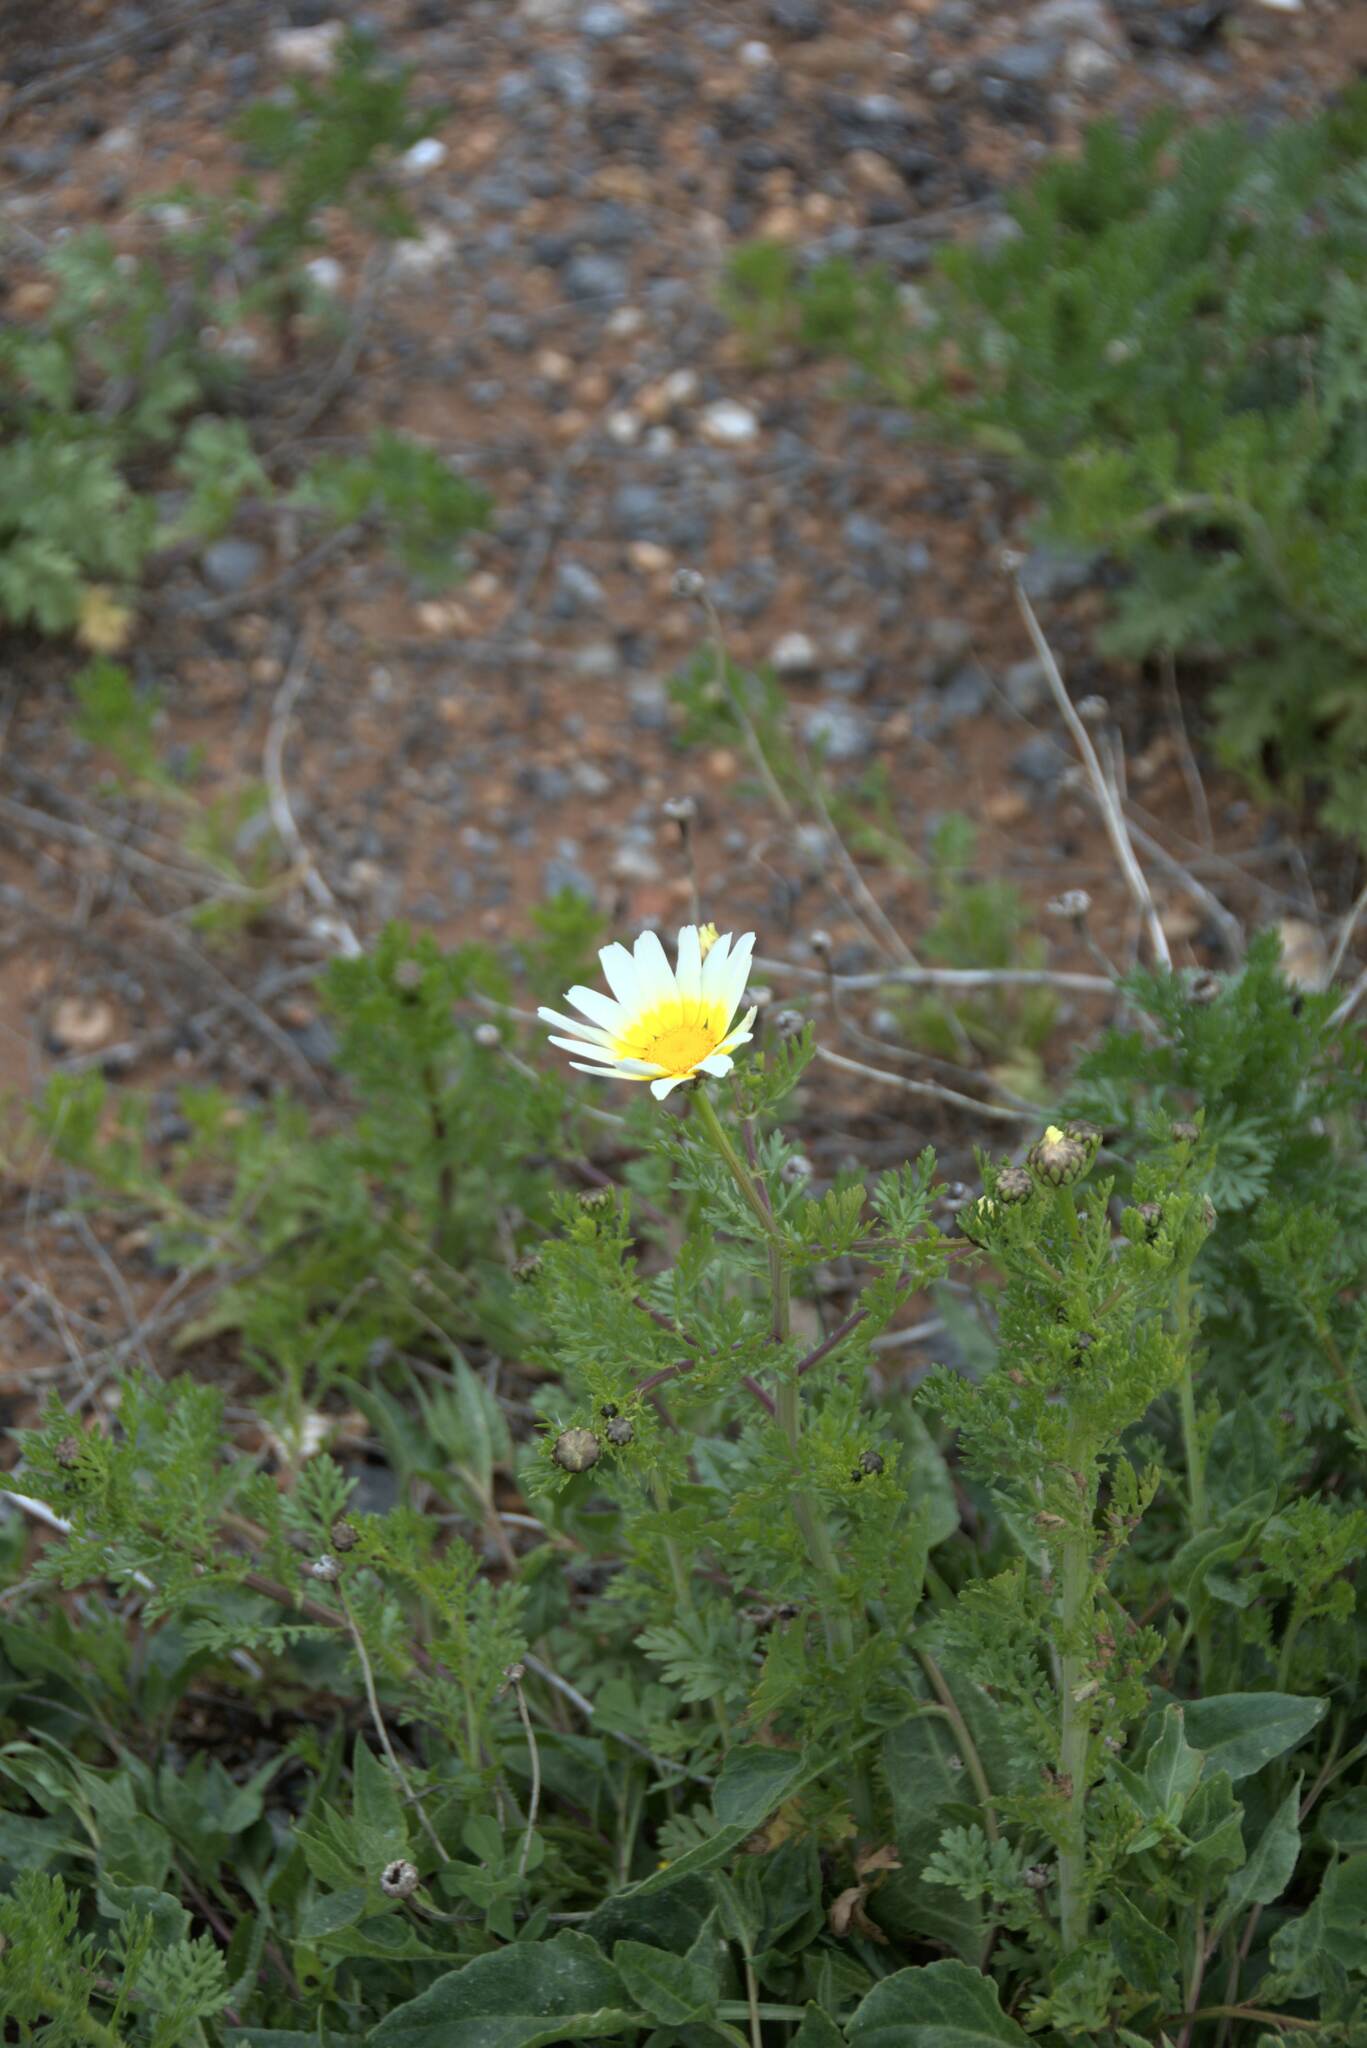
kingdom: Plantae
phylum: Tracheophyta
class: Magnoliopsida
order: Asterales
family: Asteraceae
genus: Glebionis
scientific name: Glebionis coronaria
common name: Crowndaisy
